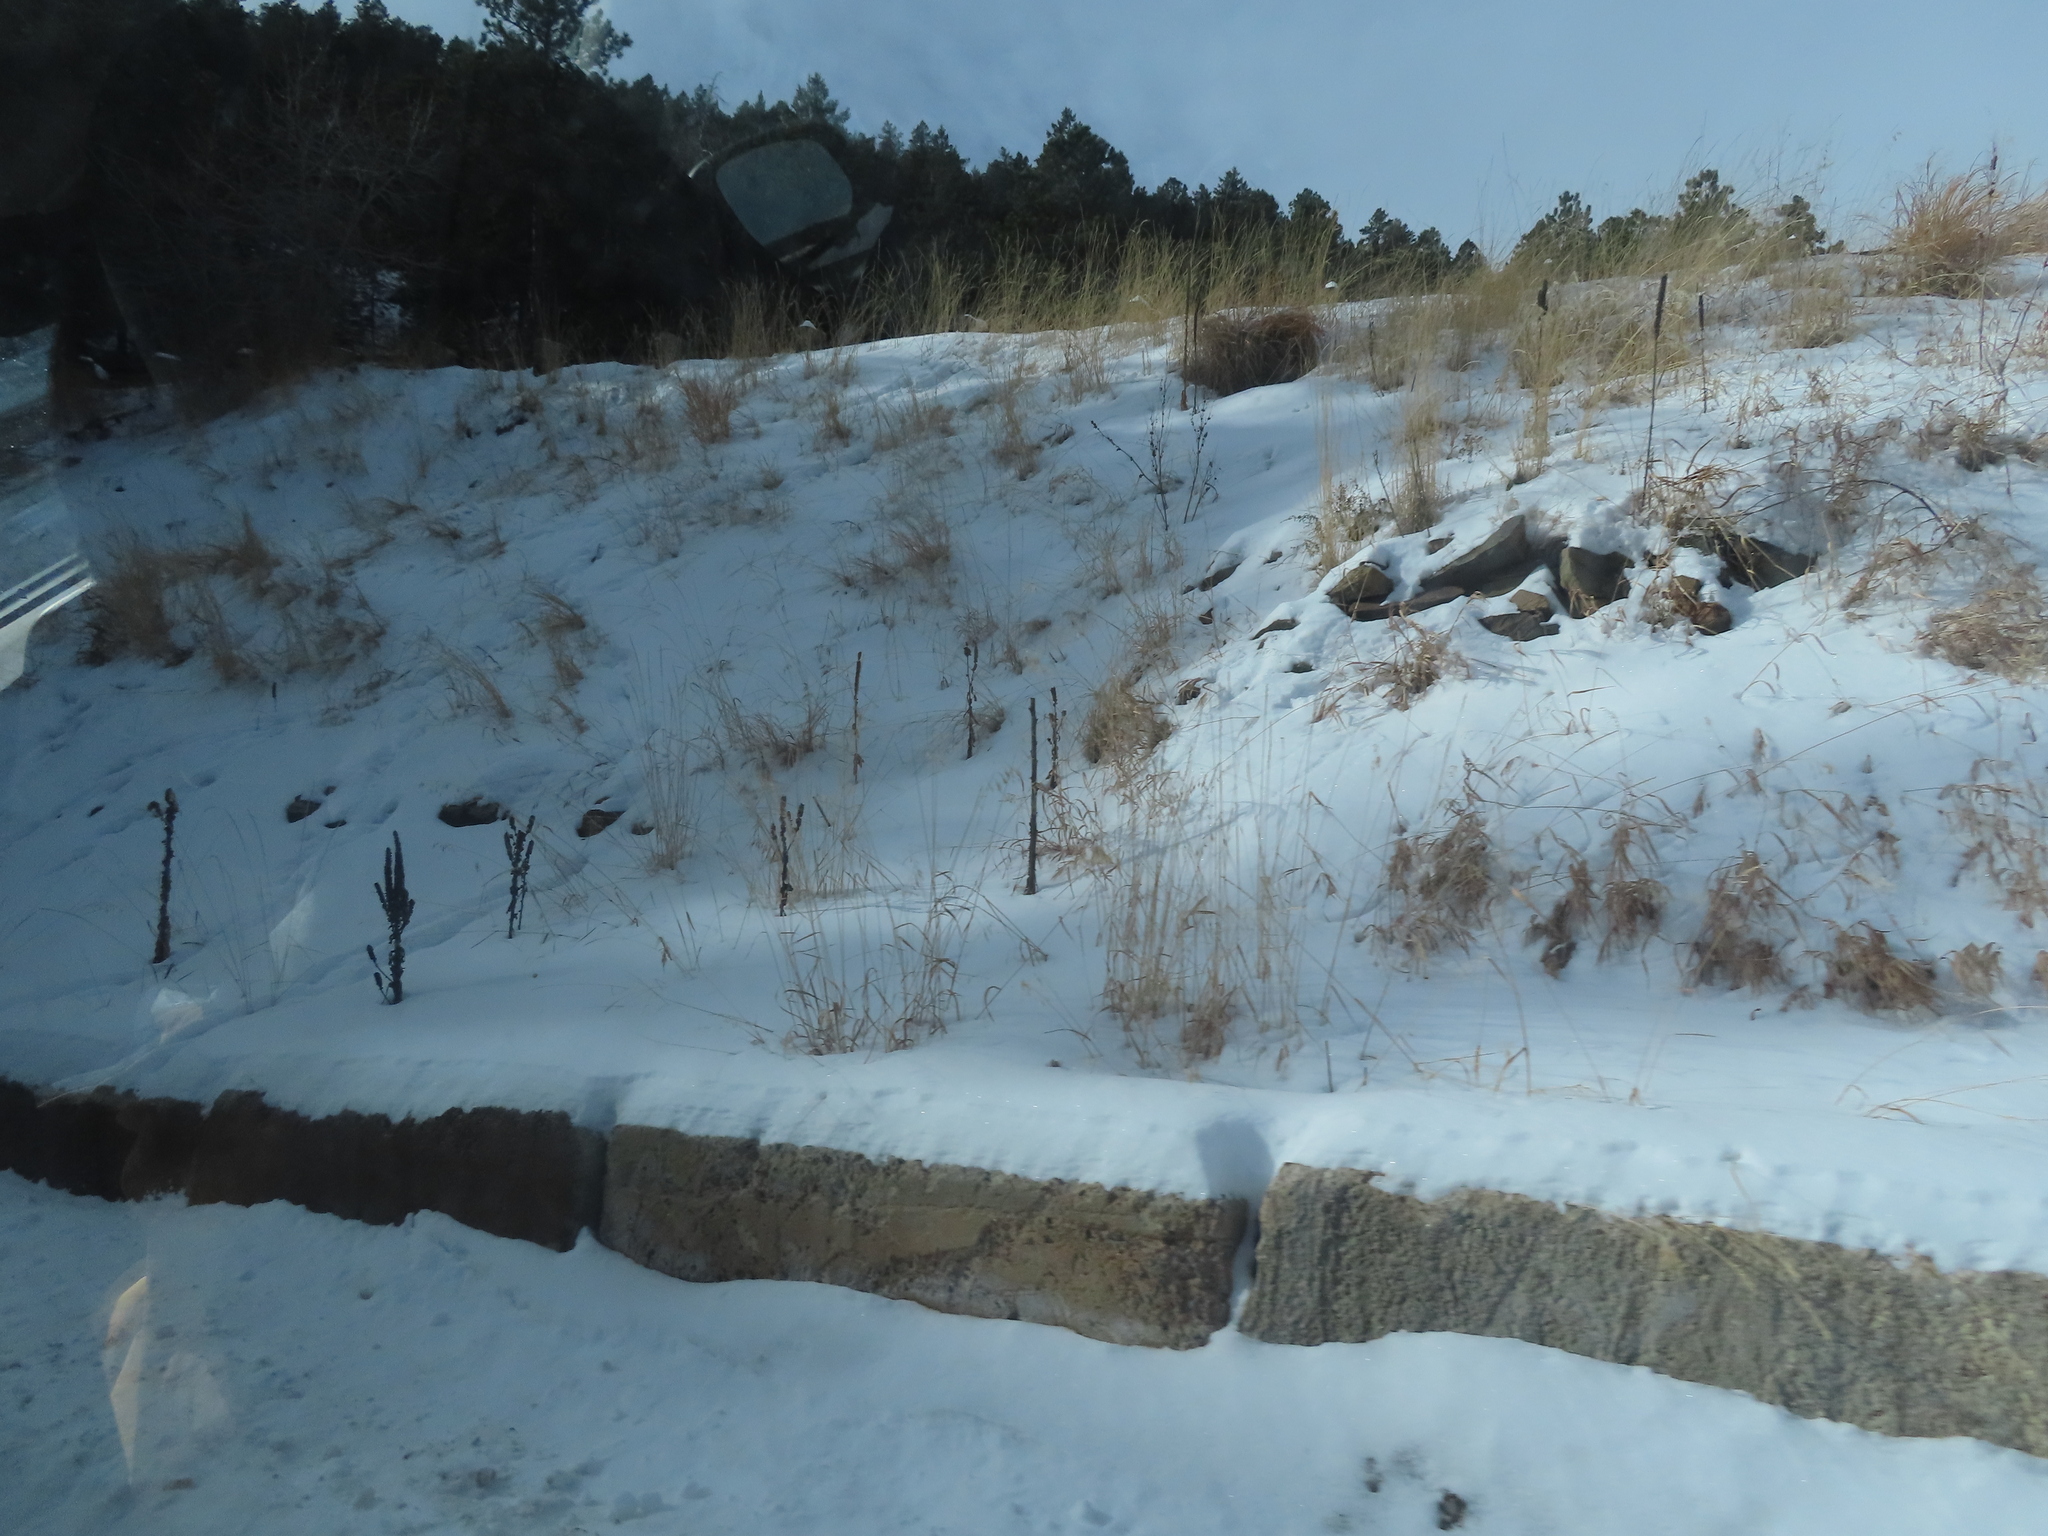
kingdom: Plantae
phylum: Tracheophyta
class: Magnoliopsida
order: Lamiales
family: Scrophulariaceae
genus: Verbascum
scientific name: Verbascum thapsus
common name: Common mullein
